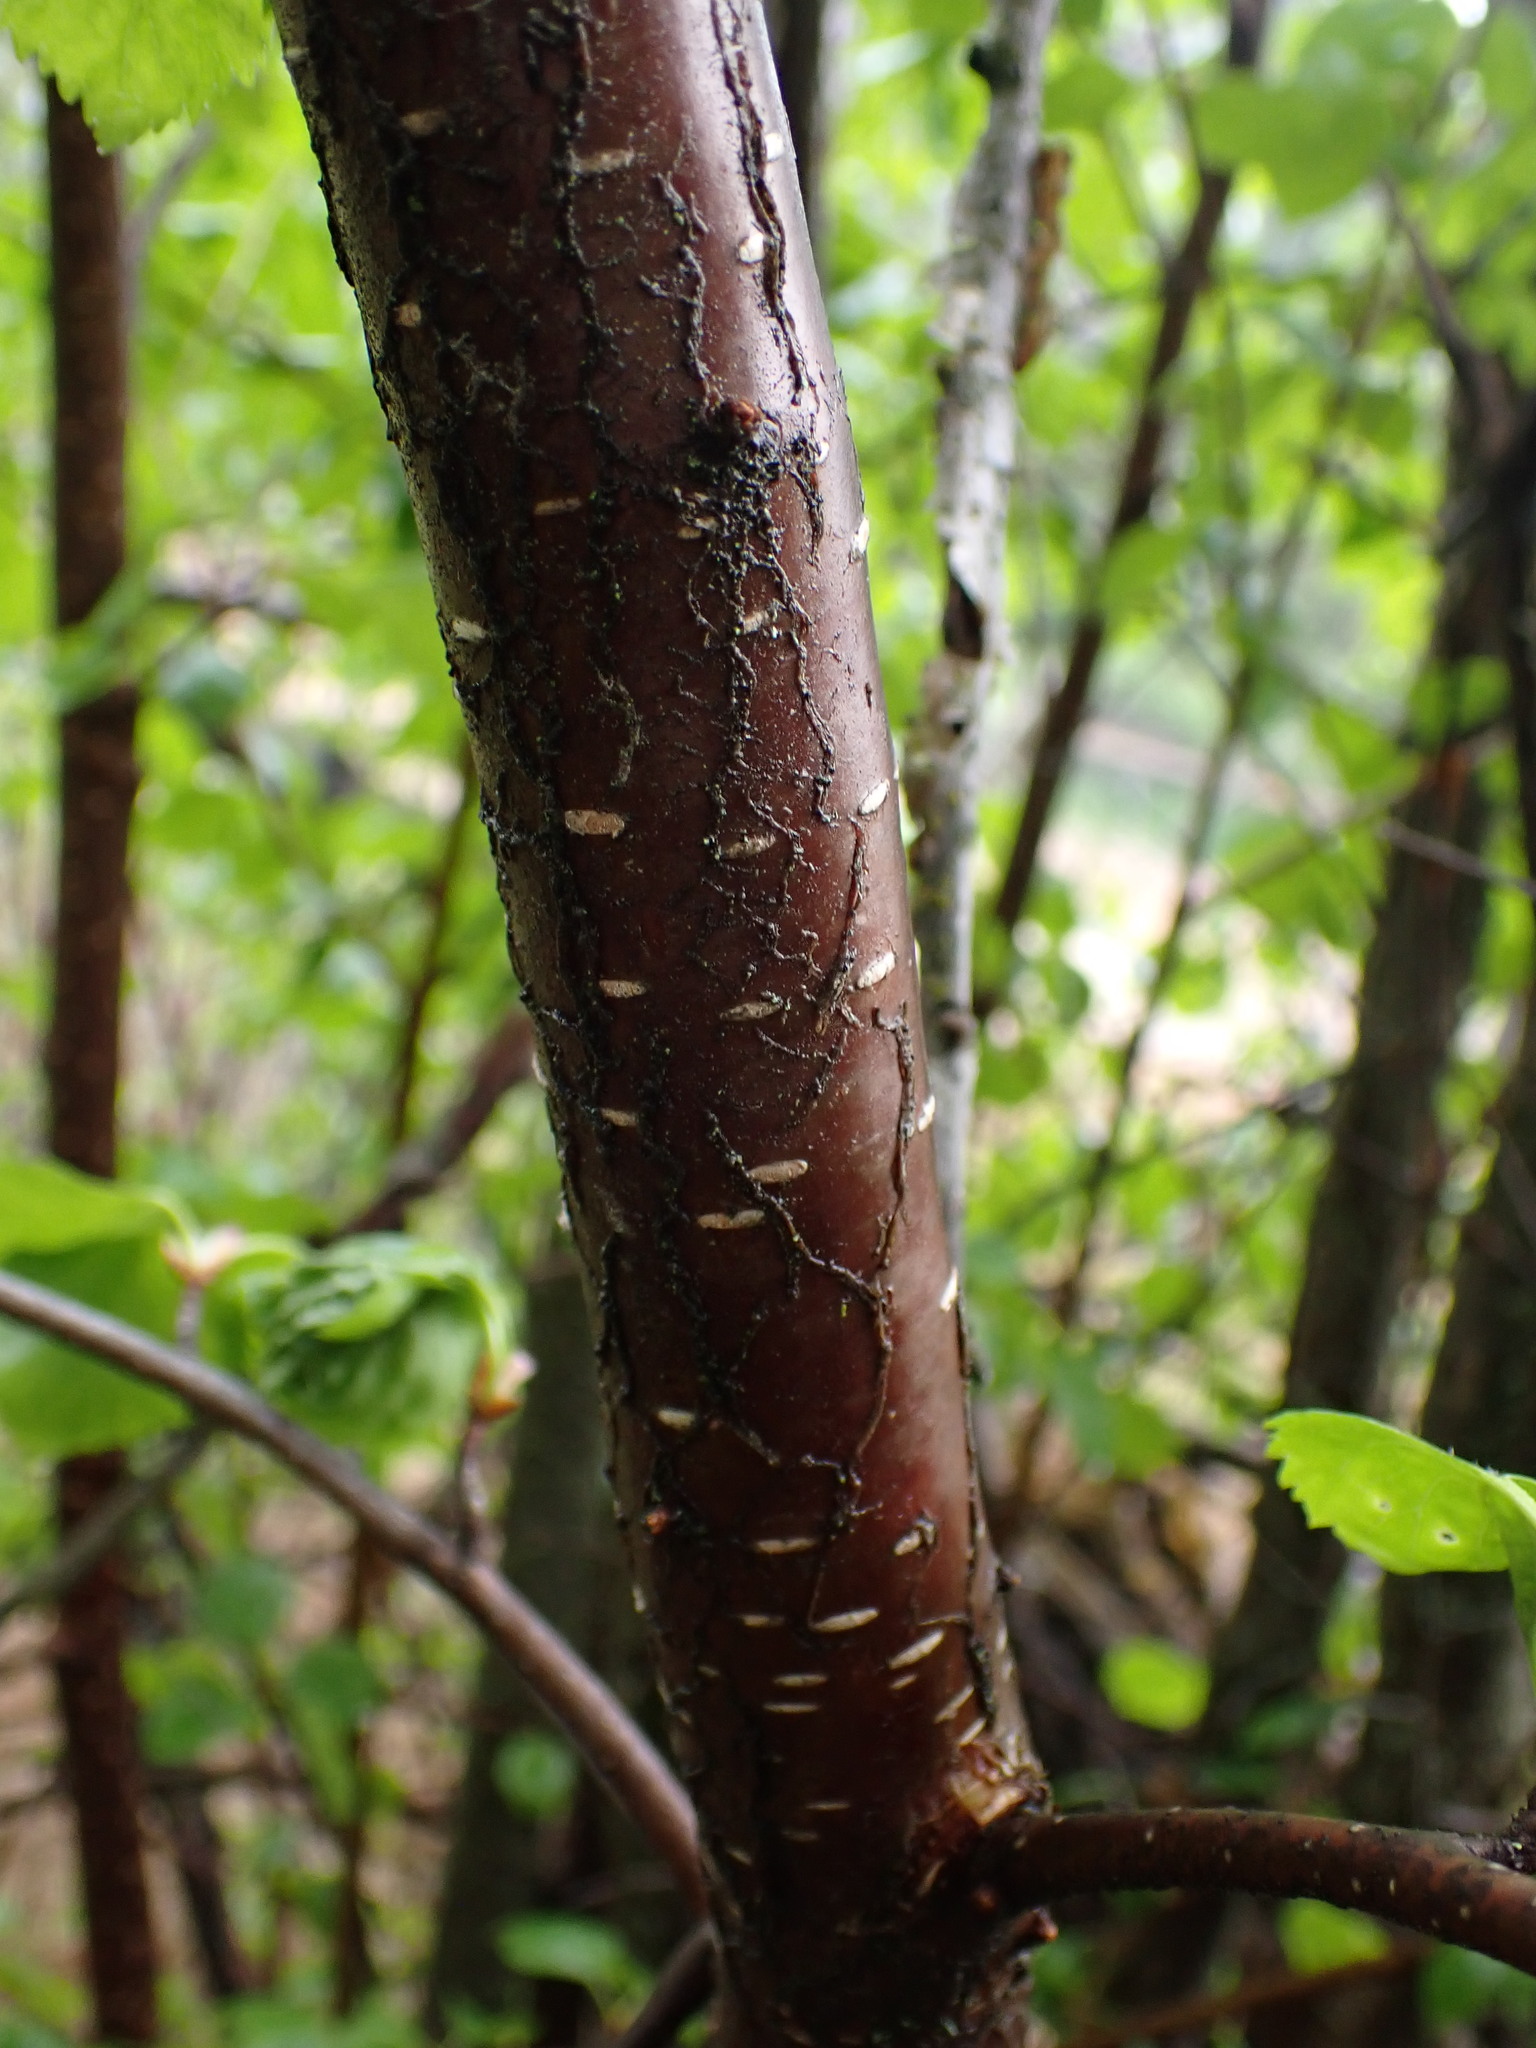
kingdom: Plantae
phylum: Tracheophyta
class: Magnoliopsida
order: Fagales
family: Betulaceae
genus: Betula
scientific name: Betula occidentalis
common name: River birch
